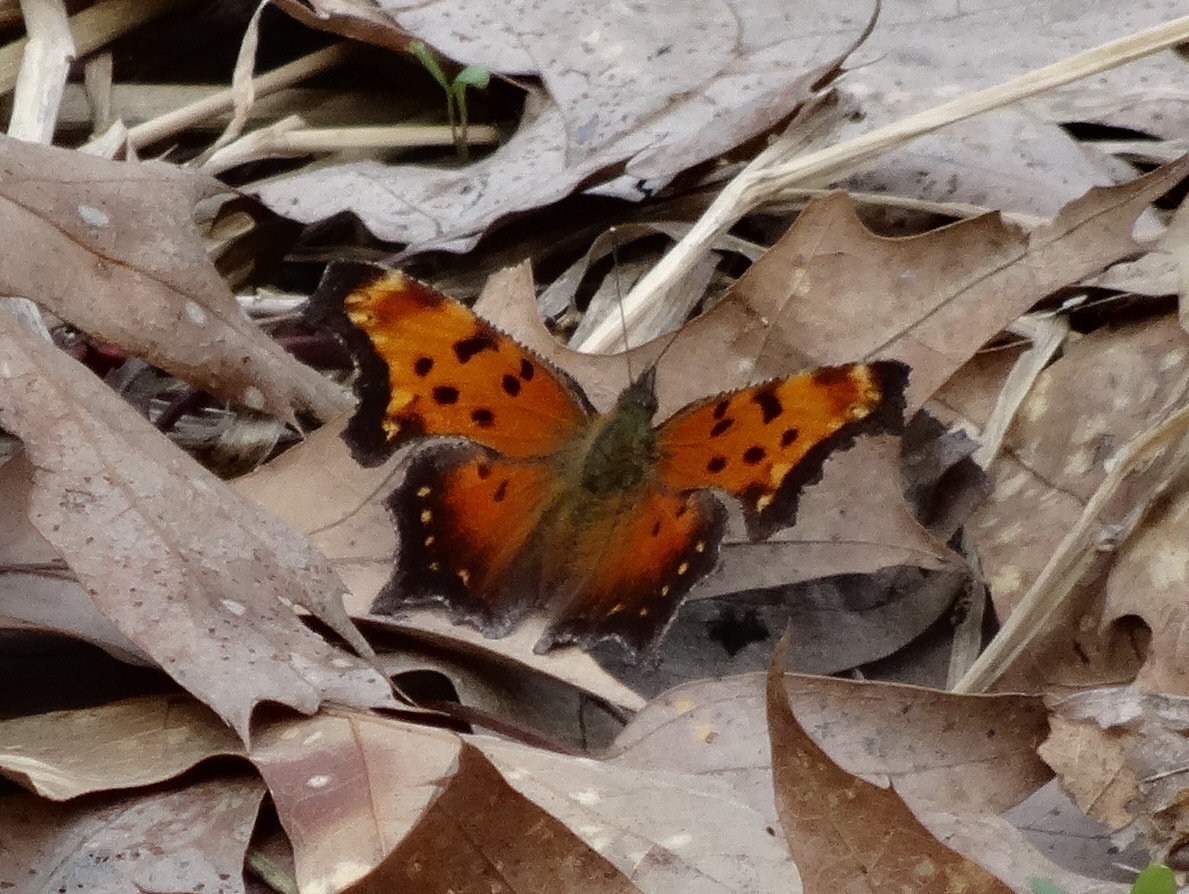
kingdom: Animalia
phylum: Arthropoda
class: Insecta
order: Lepidoptera
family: Nymphalidae
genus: Polygonia
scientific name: Polygonia progne
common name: Gray comma
